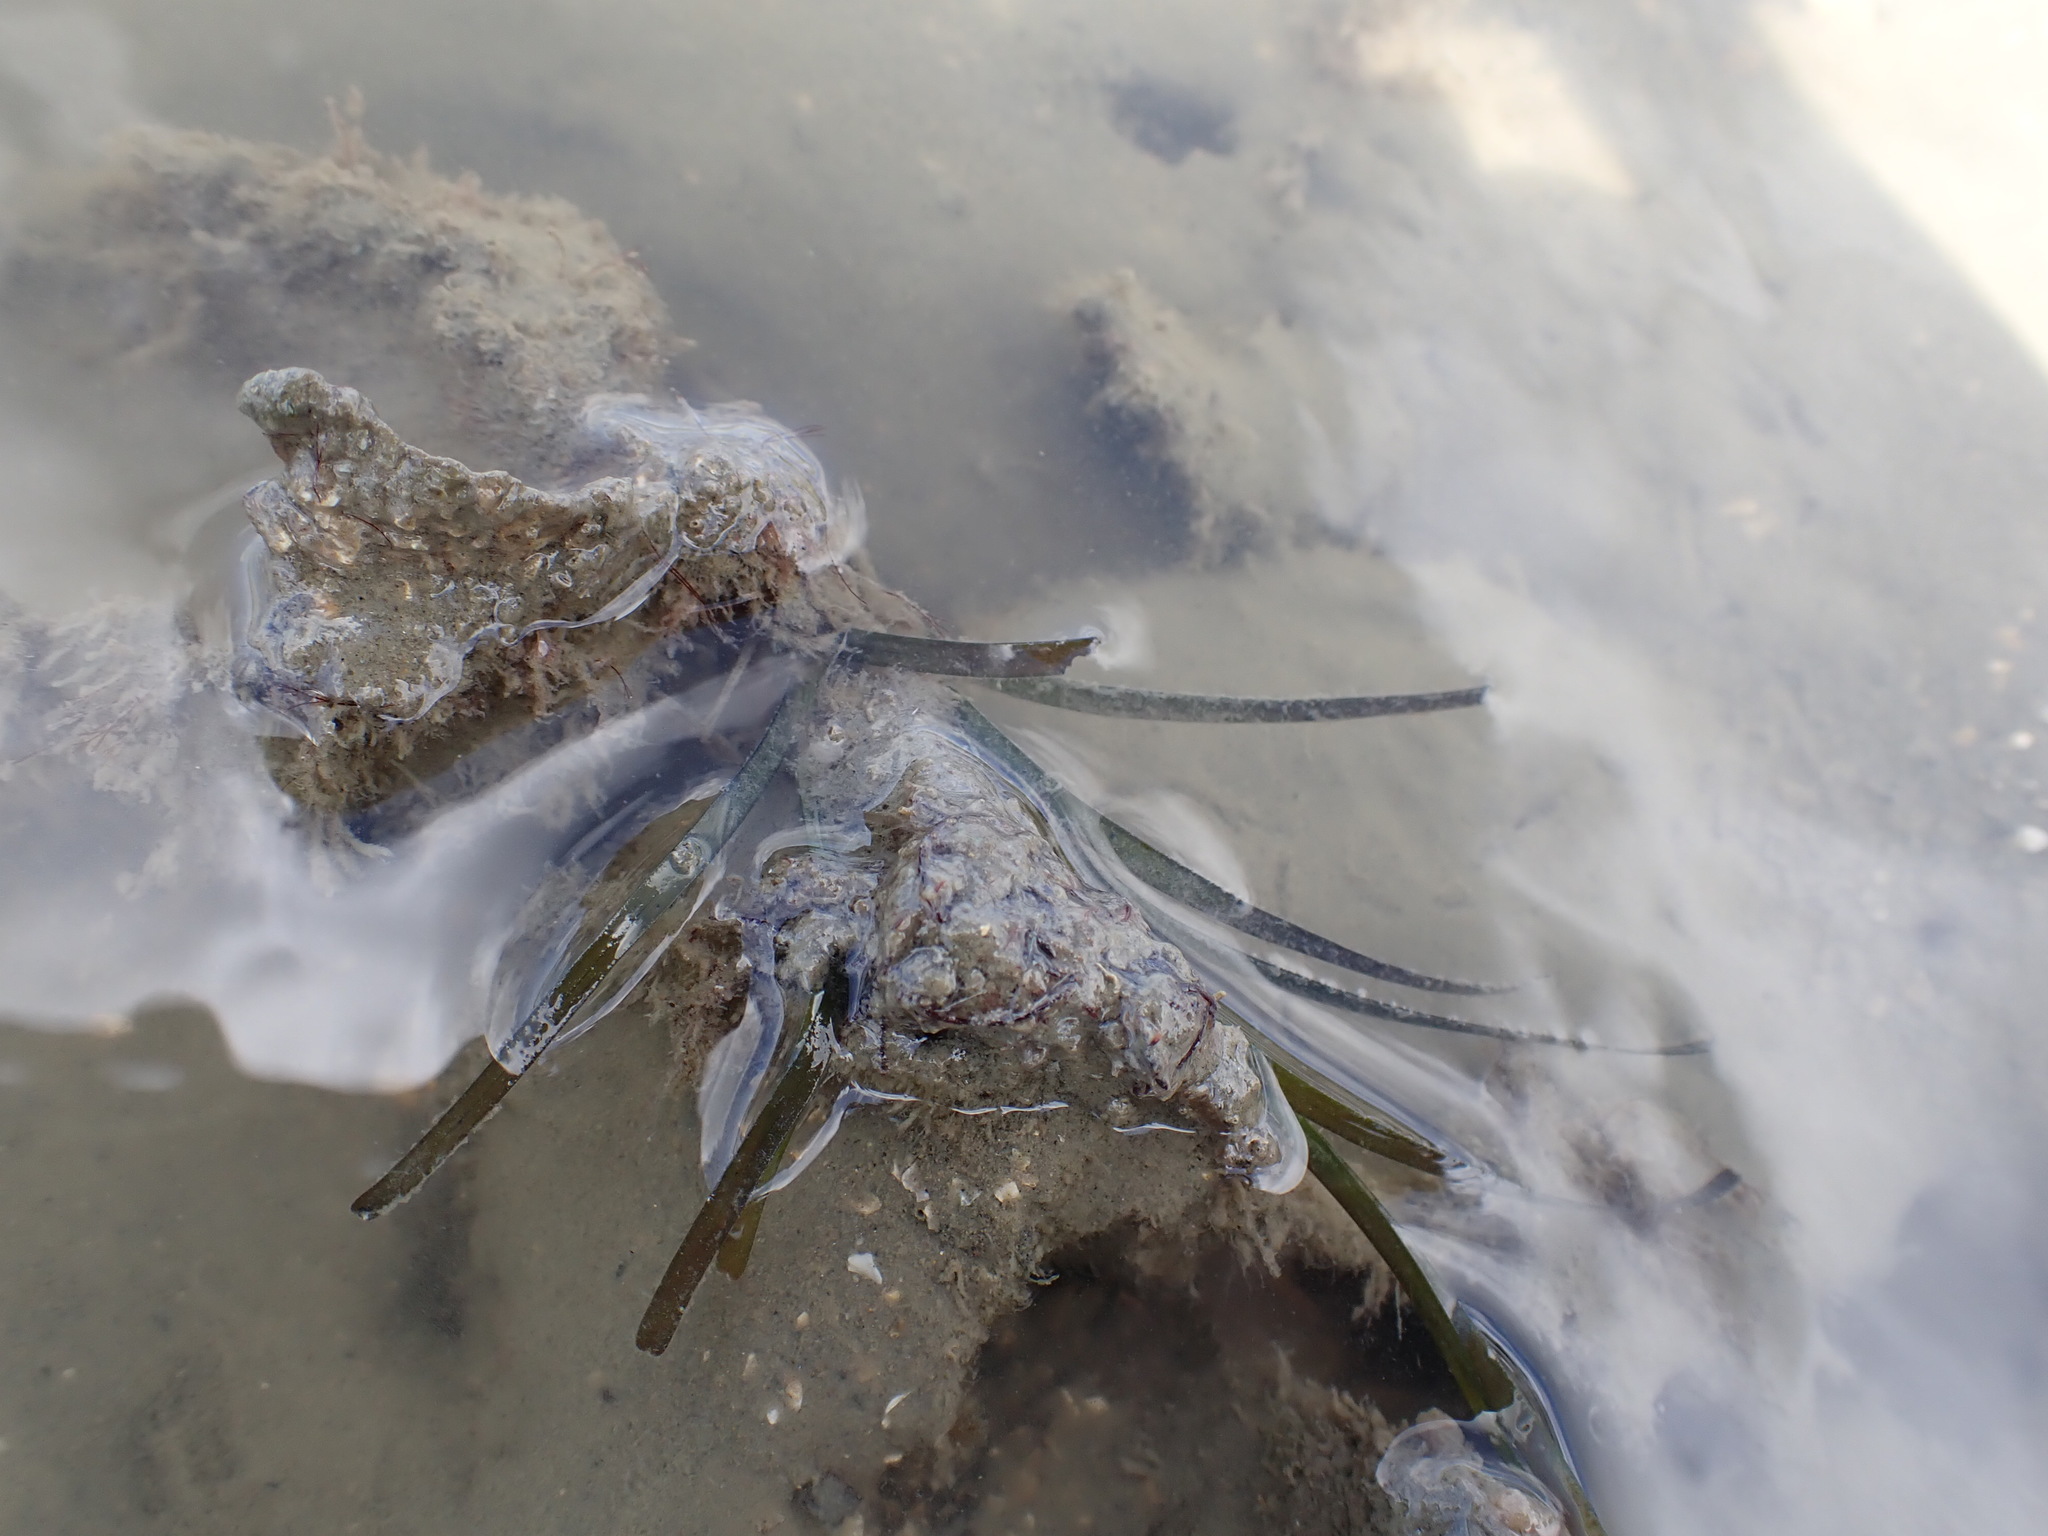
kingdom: Plantae
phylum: Tracheophyta
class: Liliopsida
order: Alismatales
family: Zosteraceae
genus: Zostera
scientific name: Zostera novazelandica
